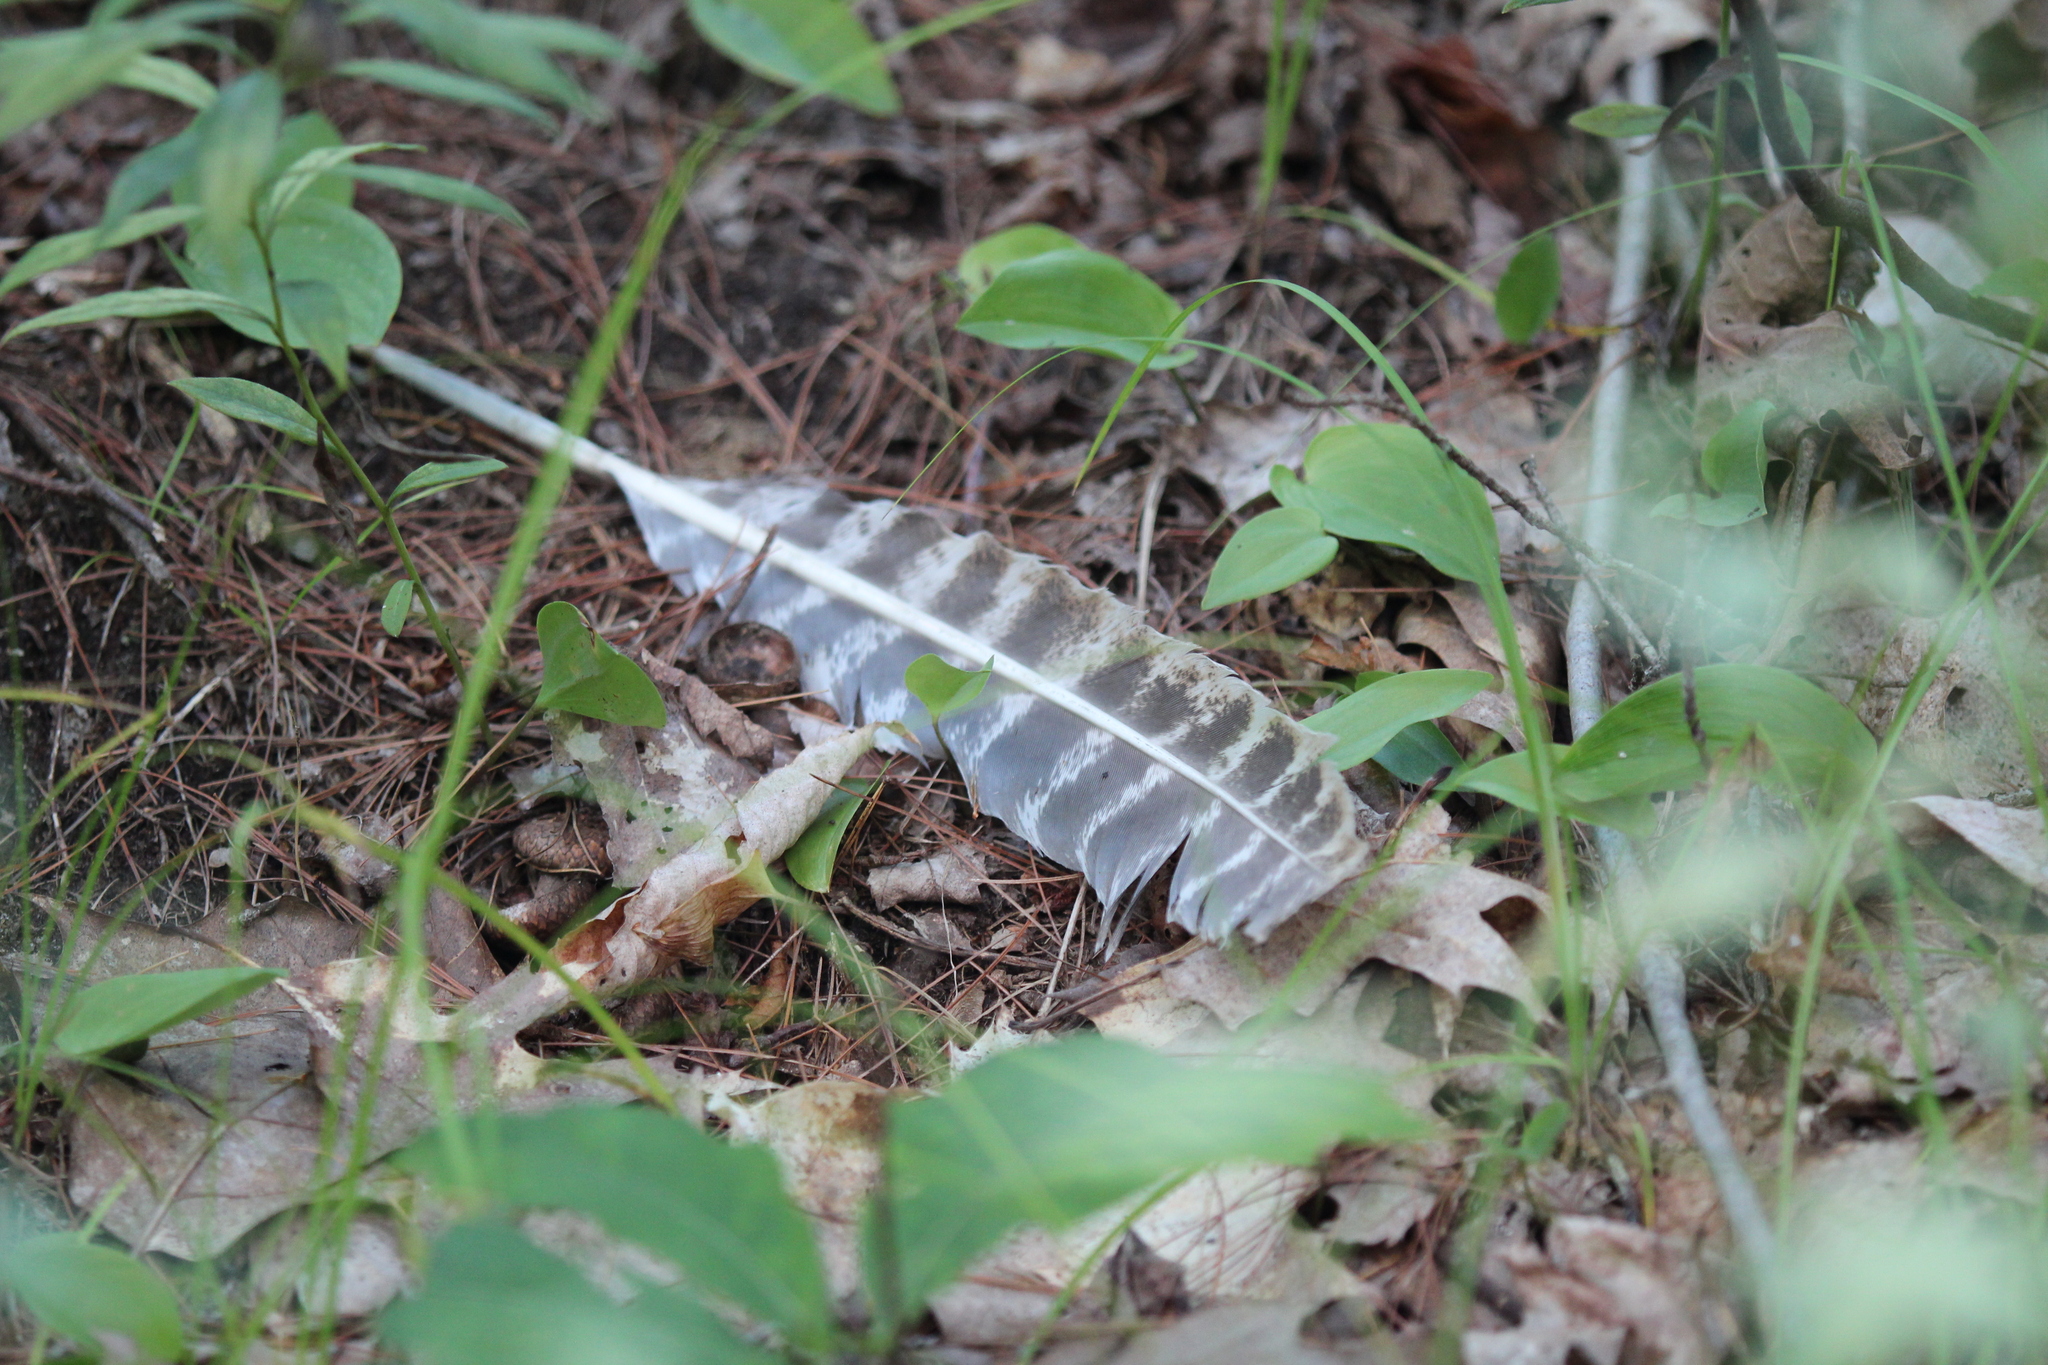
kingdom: Animalia
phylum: Chordata
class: Aves
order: Galliformes
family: Phasianidae
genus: Meleagris
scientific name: Meleagris gallopavo
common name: Wild turkey
